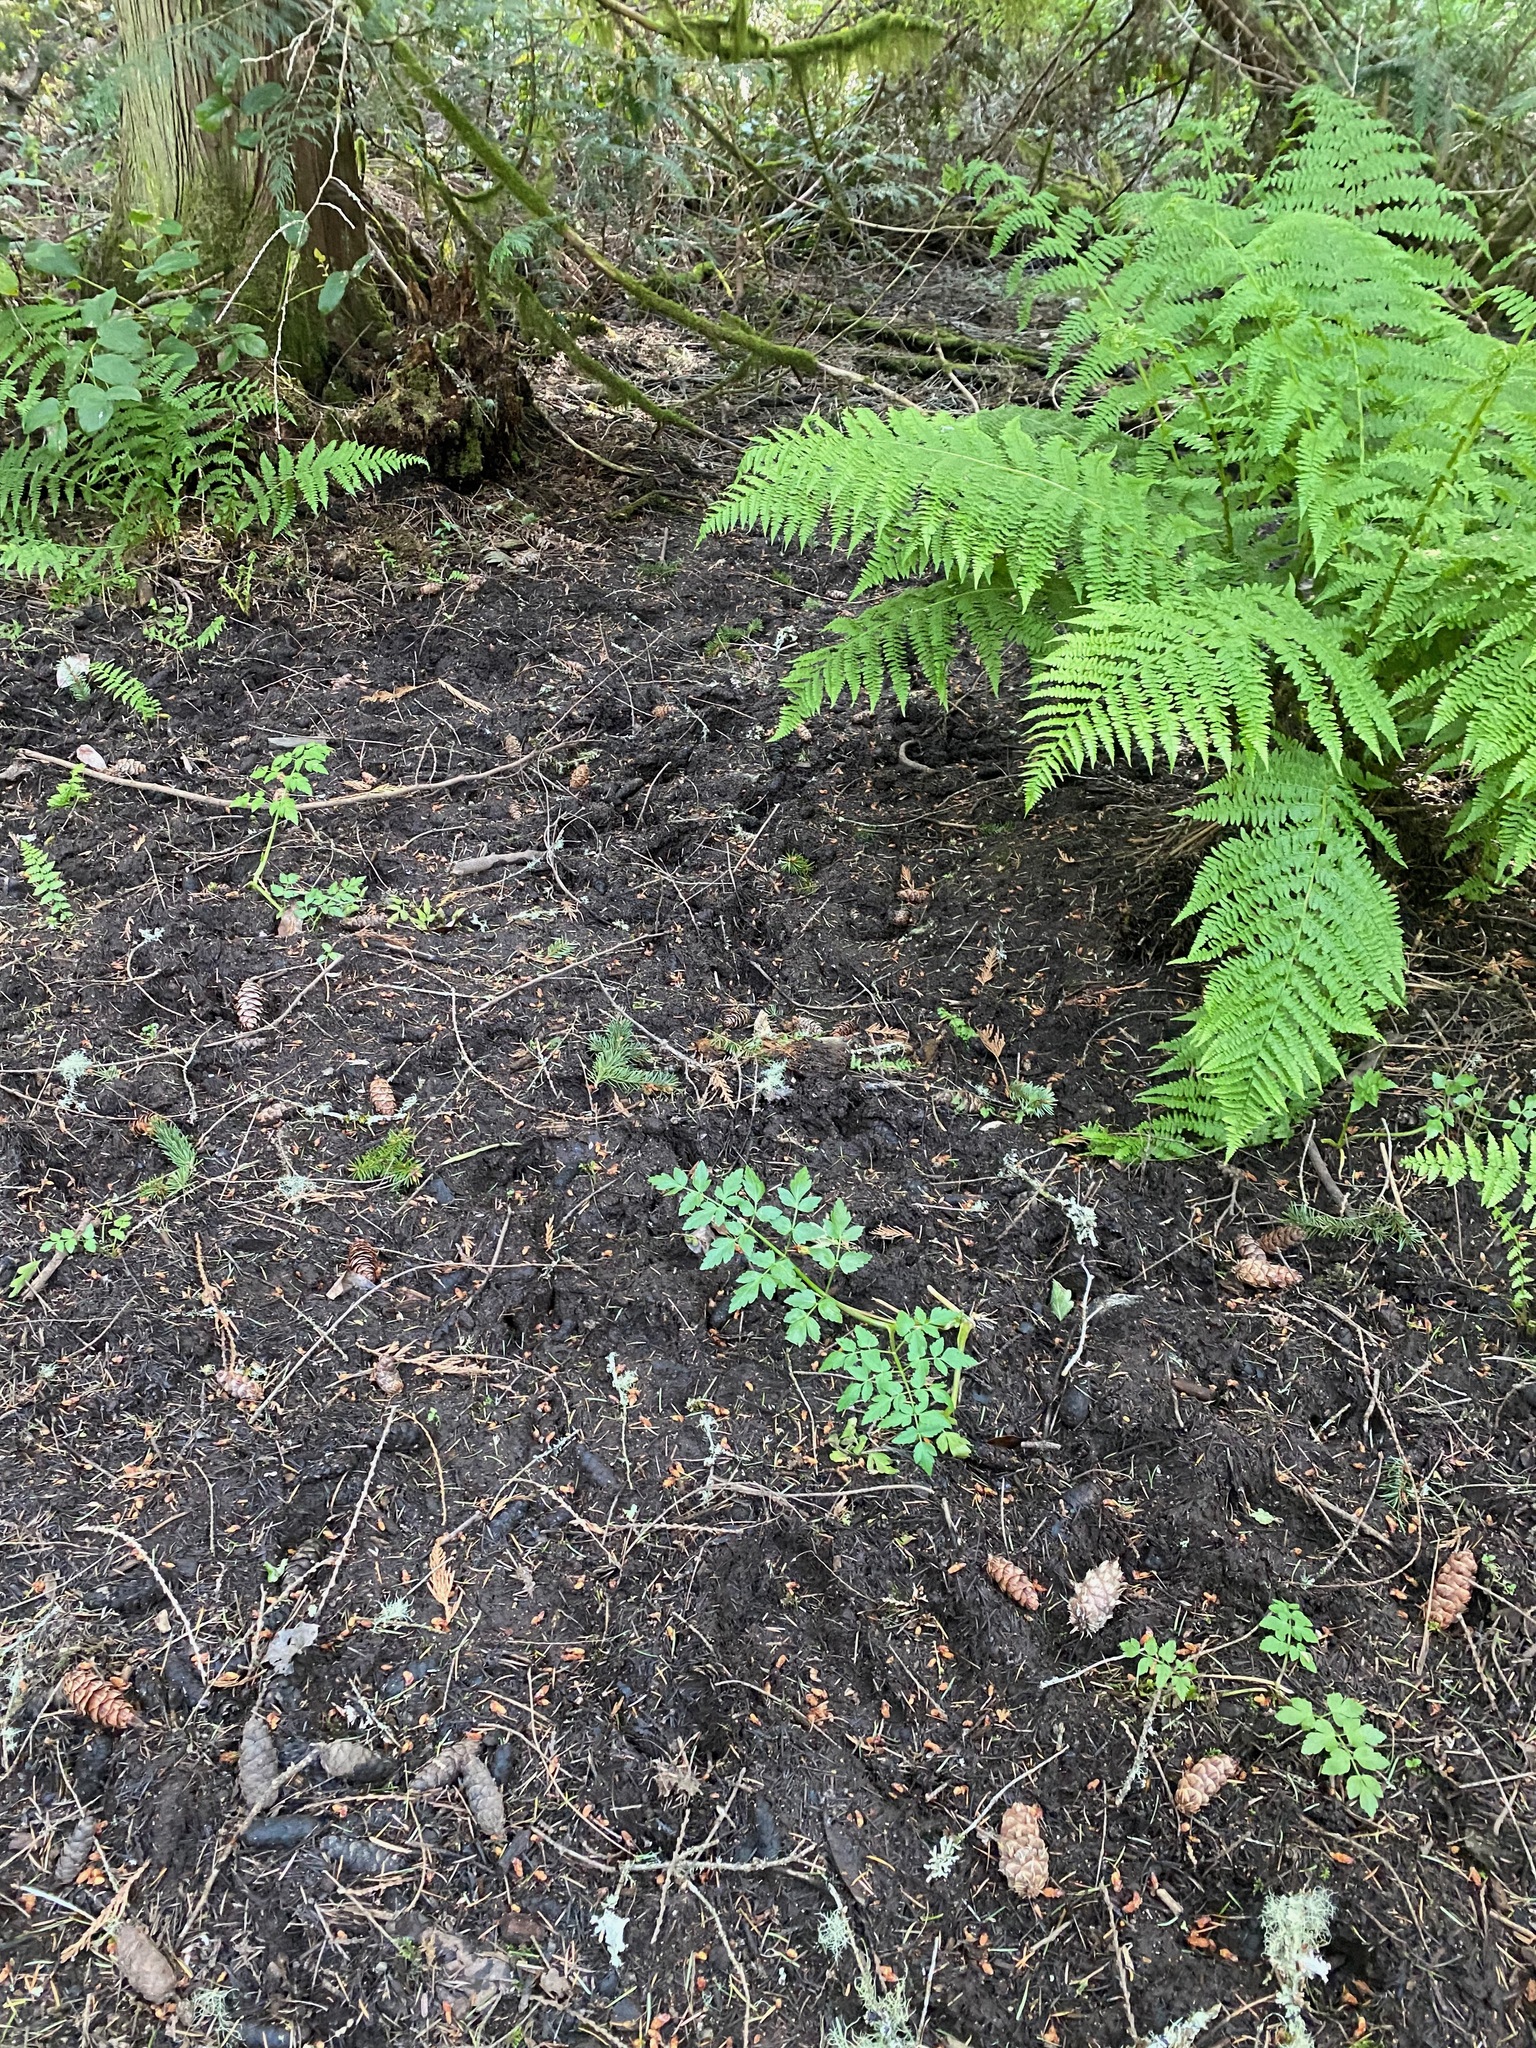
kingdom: Plantae
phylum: Tracheophyta
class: Magnoliopsida
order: Apiales
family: Apiaceae
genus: Oenanthe
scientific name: Oenanthe sarmentosa
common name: American water-parsley
